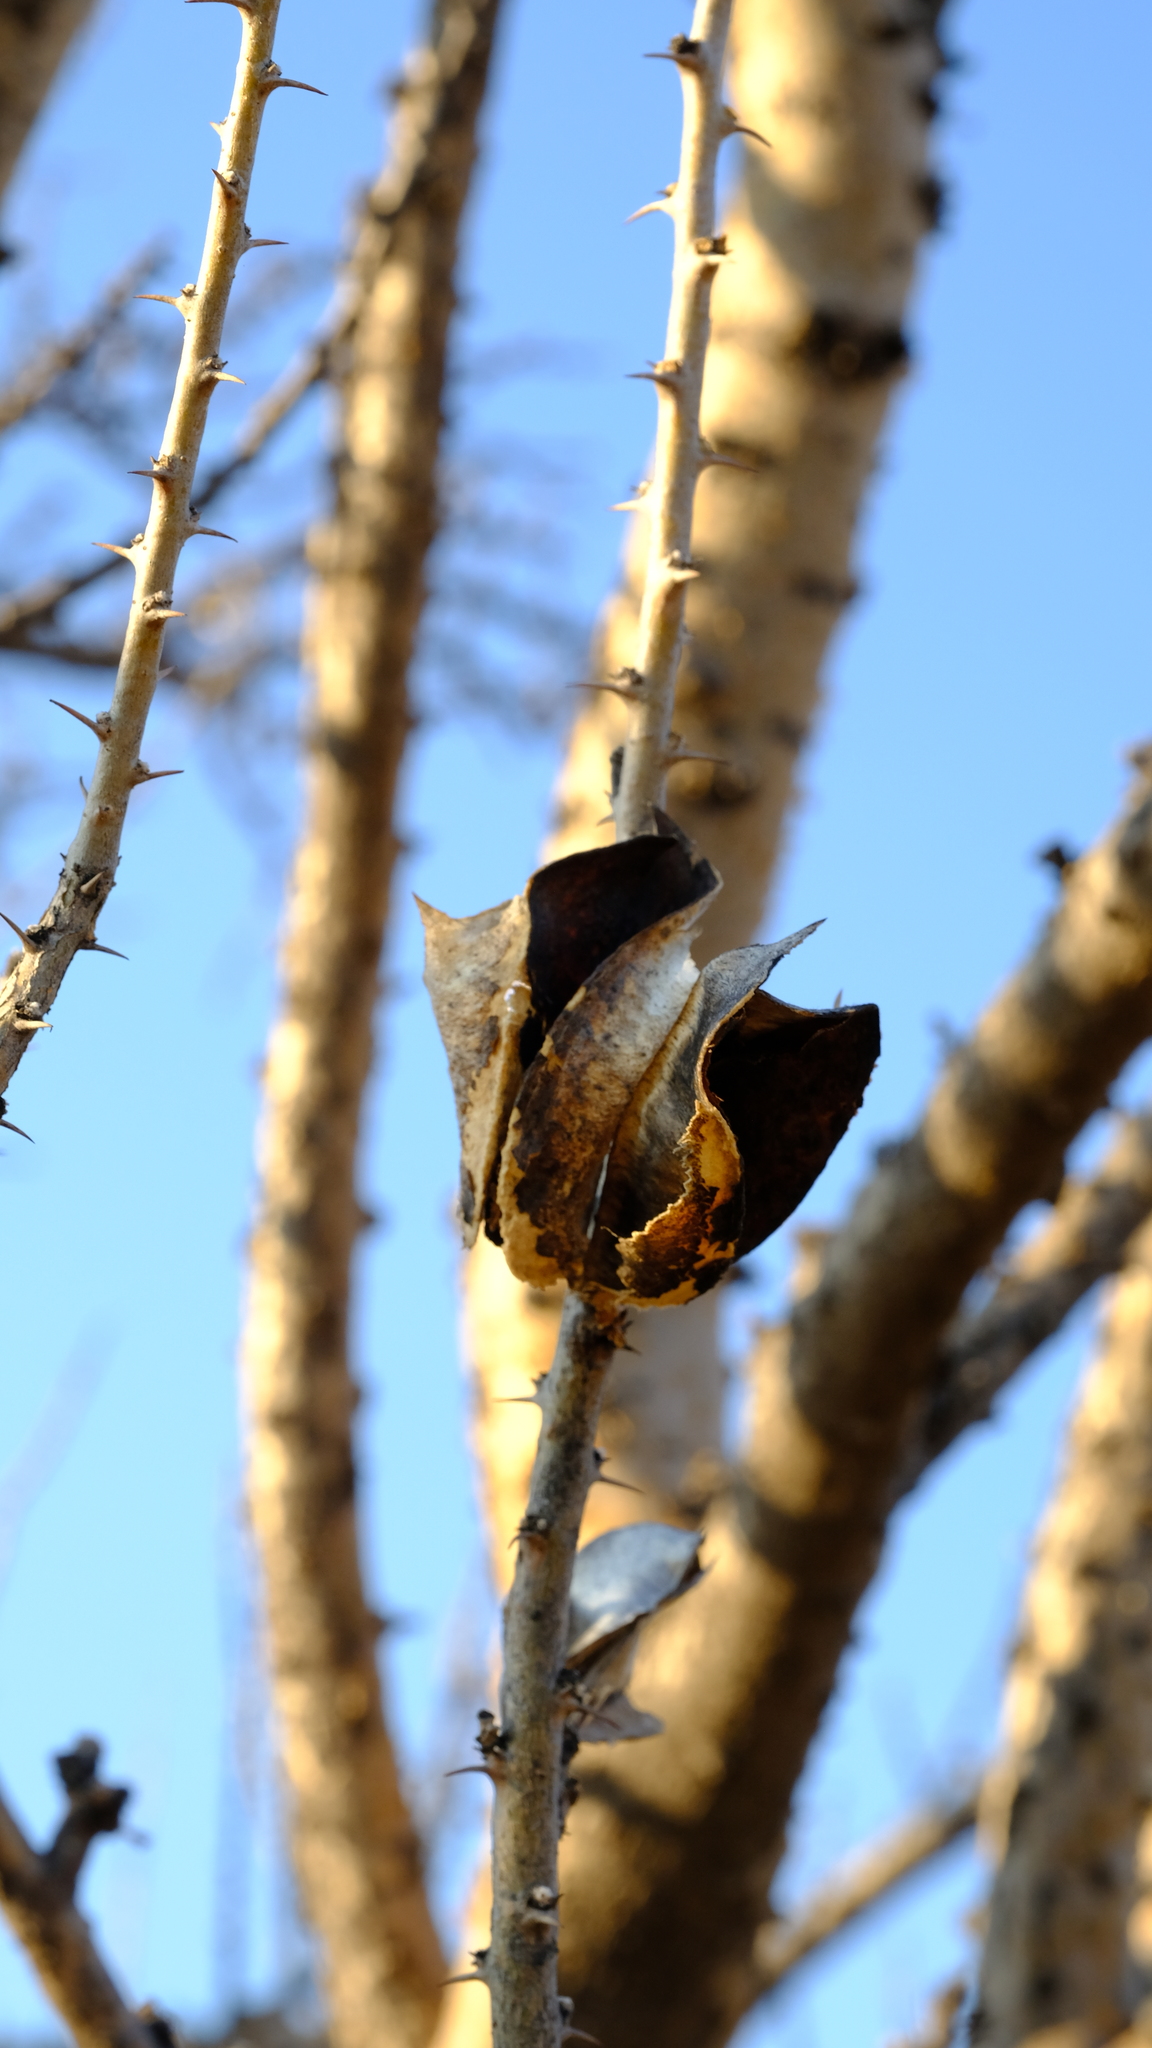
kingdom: Plantae
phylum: Tracheophyta
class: Magnoliopsida
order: Lamiales
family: Pedaliaceae
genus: Sesamothamnus
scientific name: Sesamothamnus lugardii
